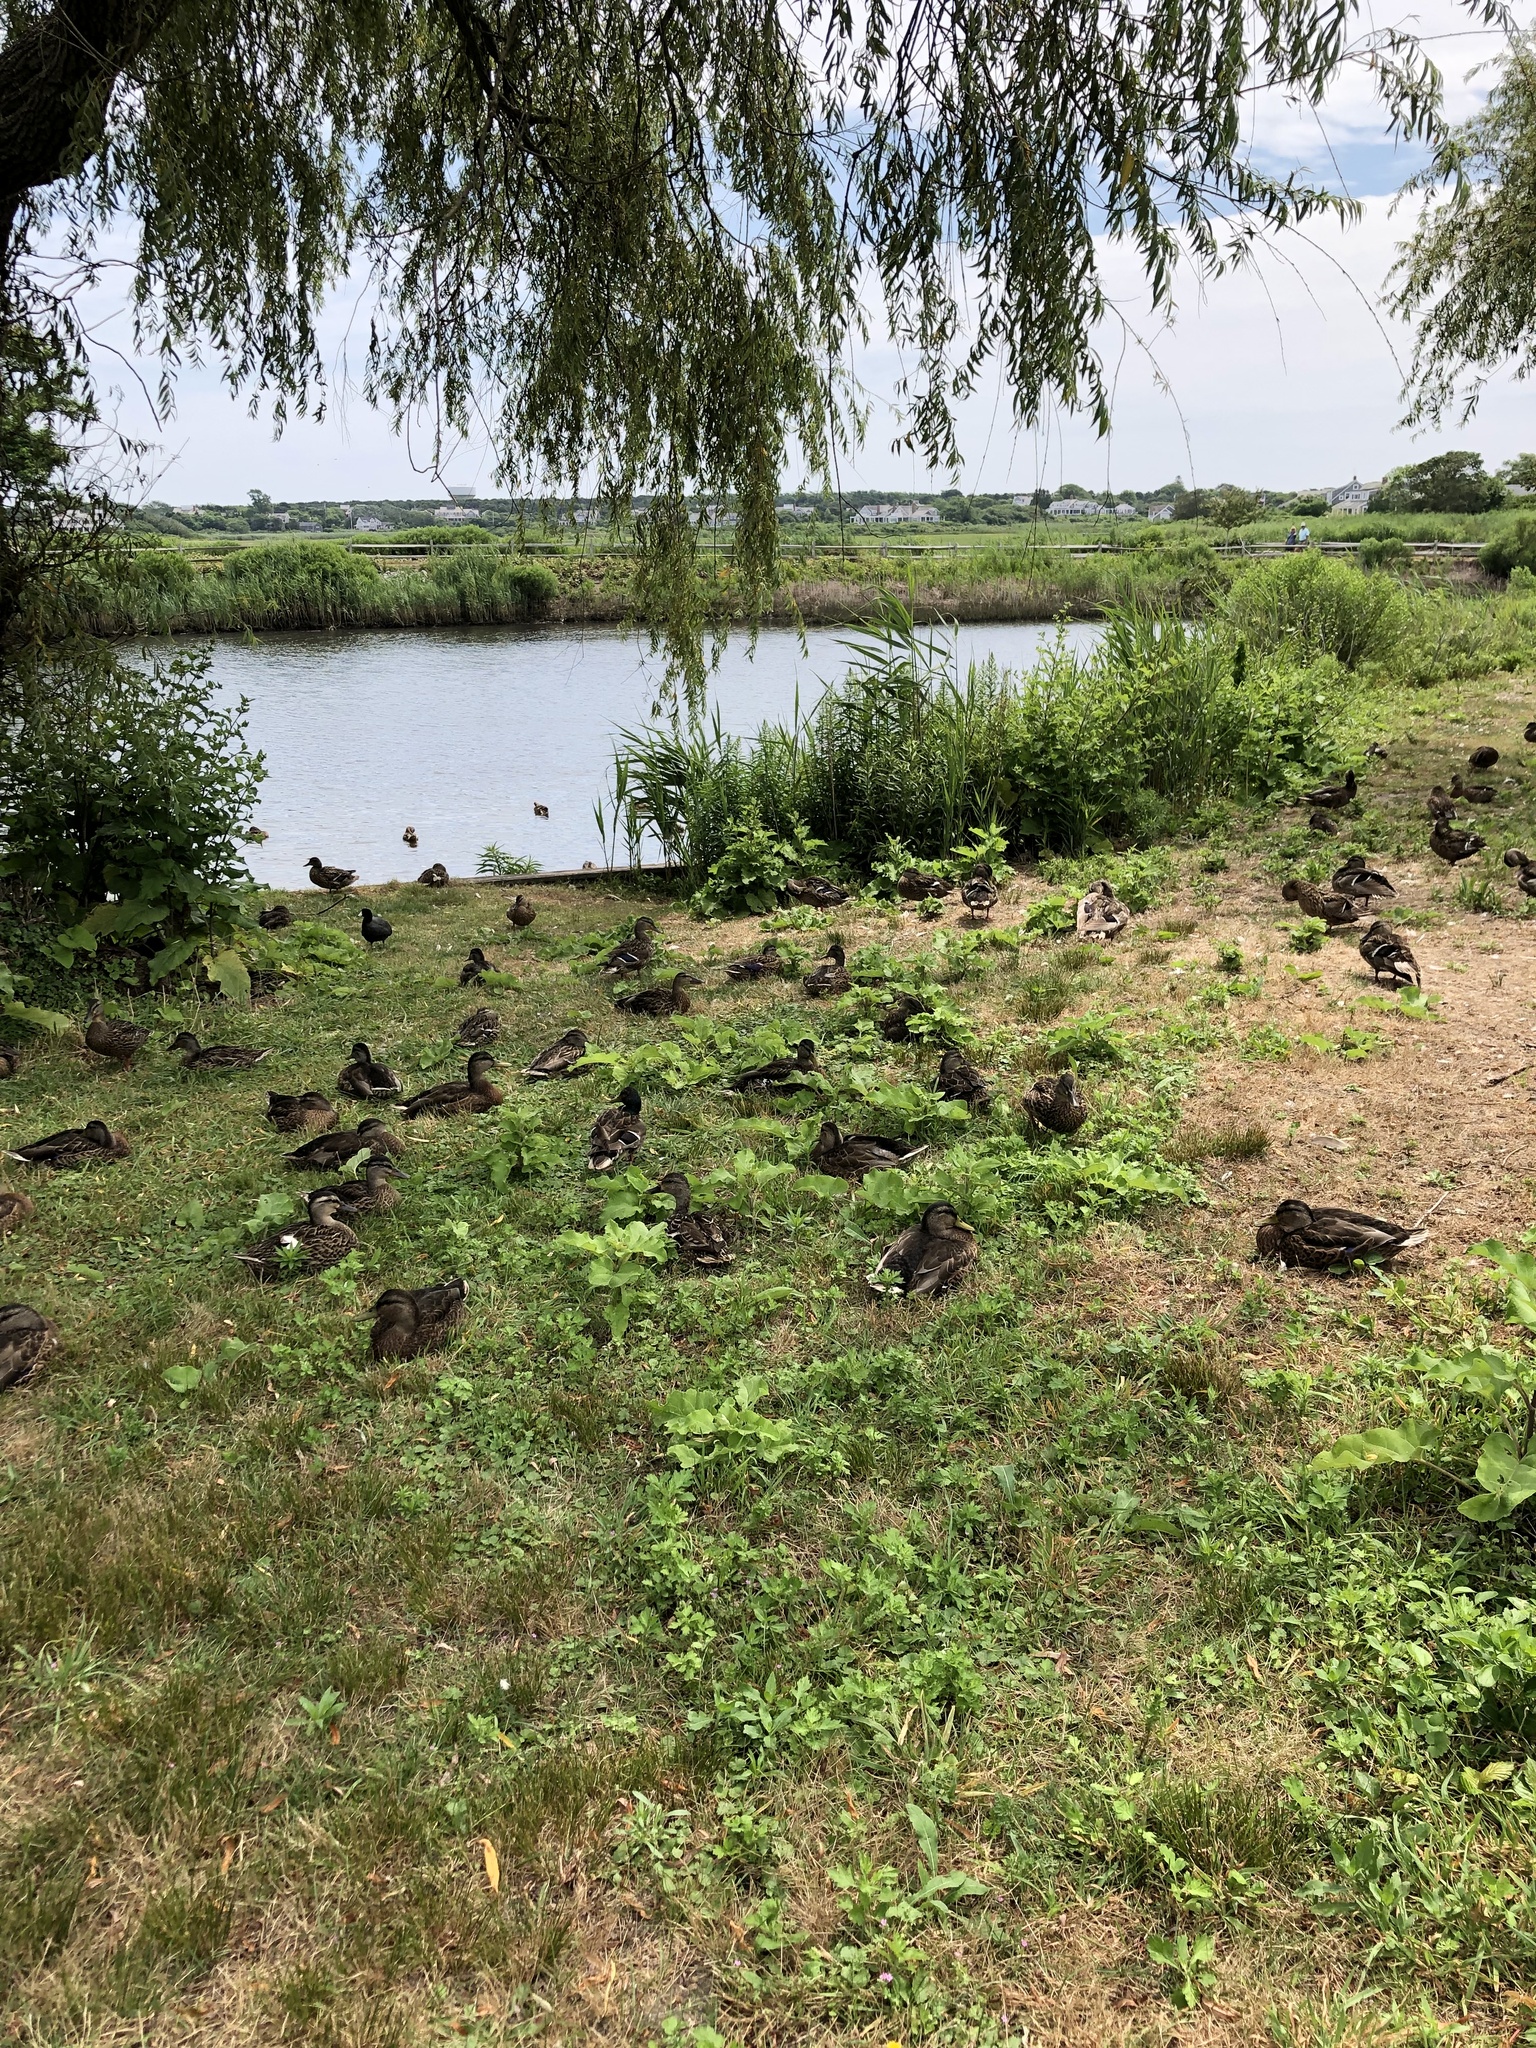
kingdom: Animalia
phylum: Chordata
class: Aves
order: Anseriformes
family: Anatidae
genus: Anas
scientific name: Anas platyrhynchos
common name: Mallard
